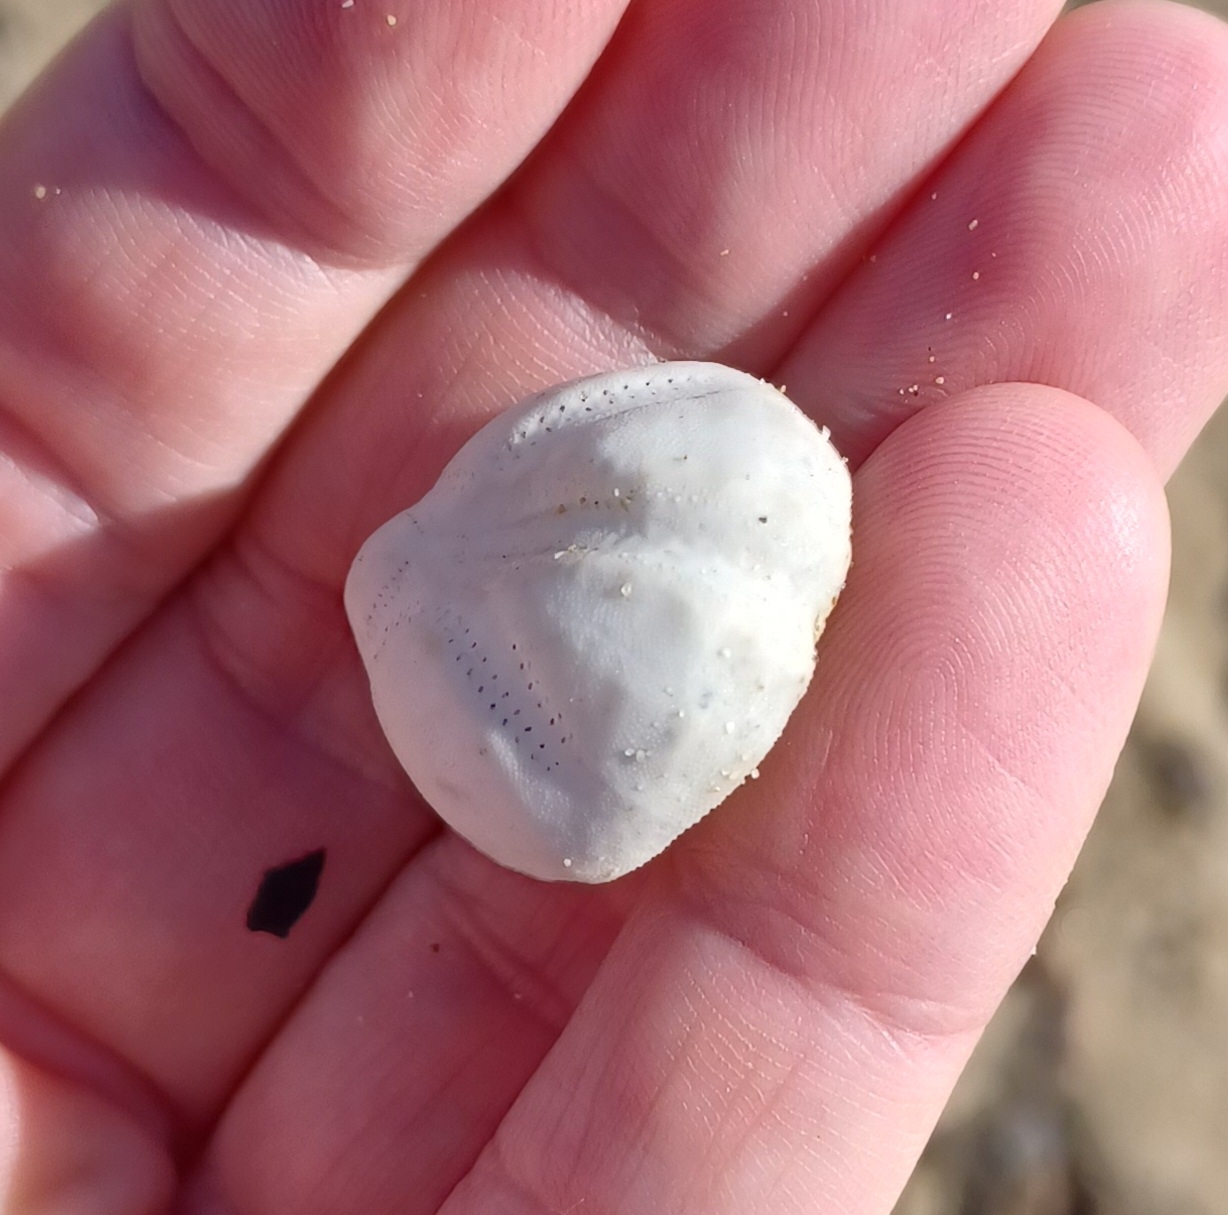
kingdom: Animalia
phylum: Echinodermata
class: Echinoidea
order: Spatangoida
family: Loveniidae
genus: Echinocardium
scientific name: Echinocardium cordatum
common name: Heart-urchin
